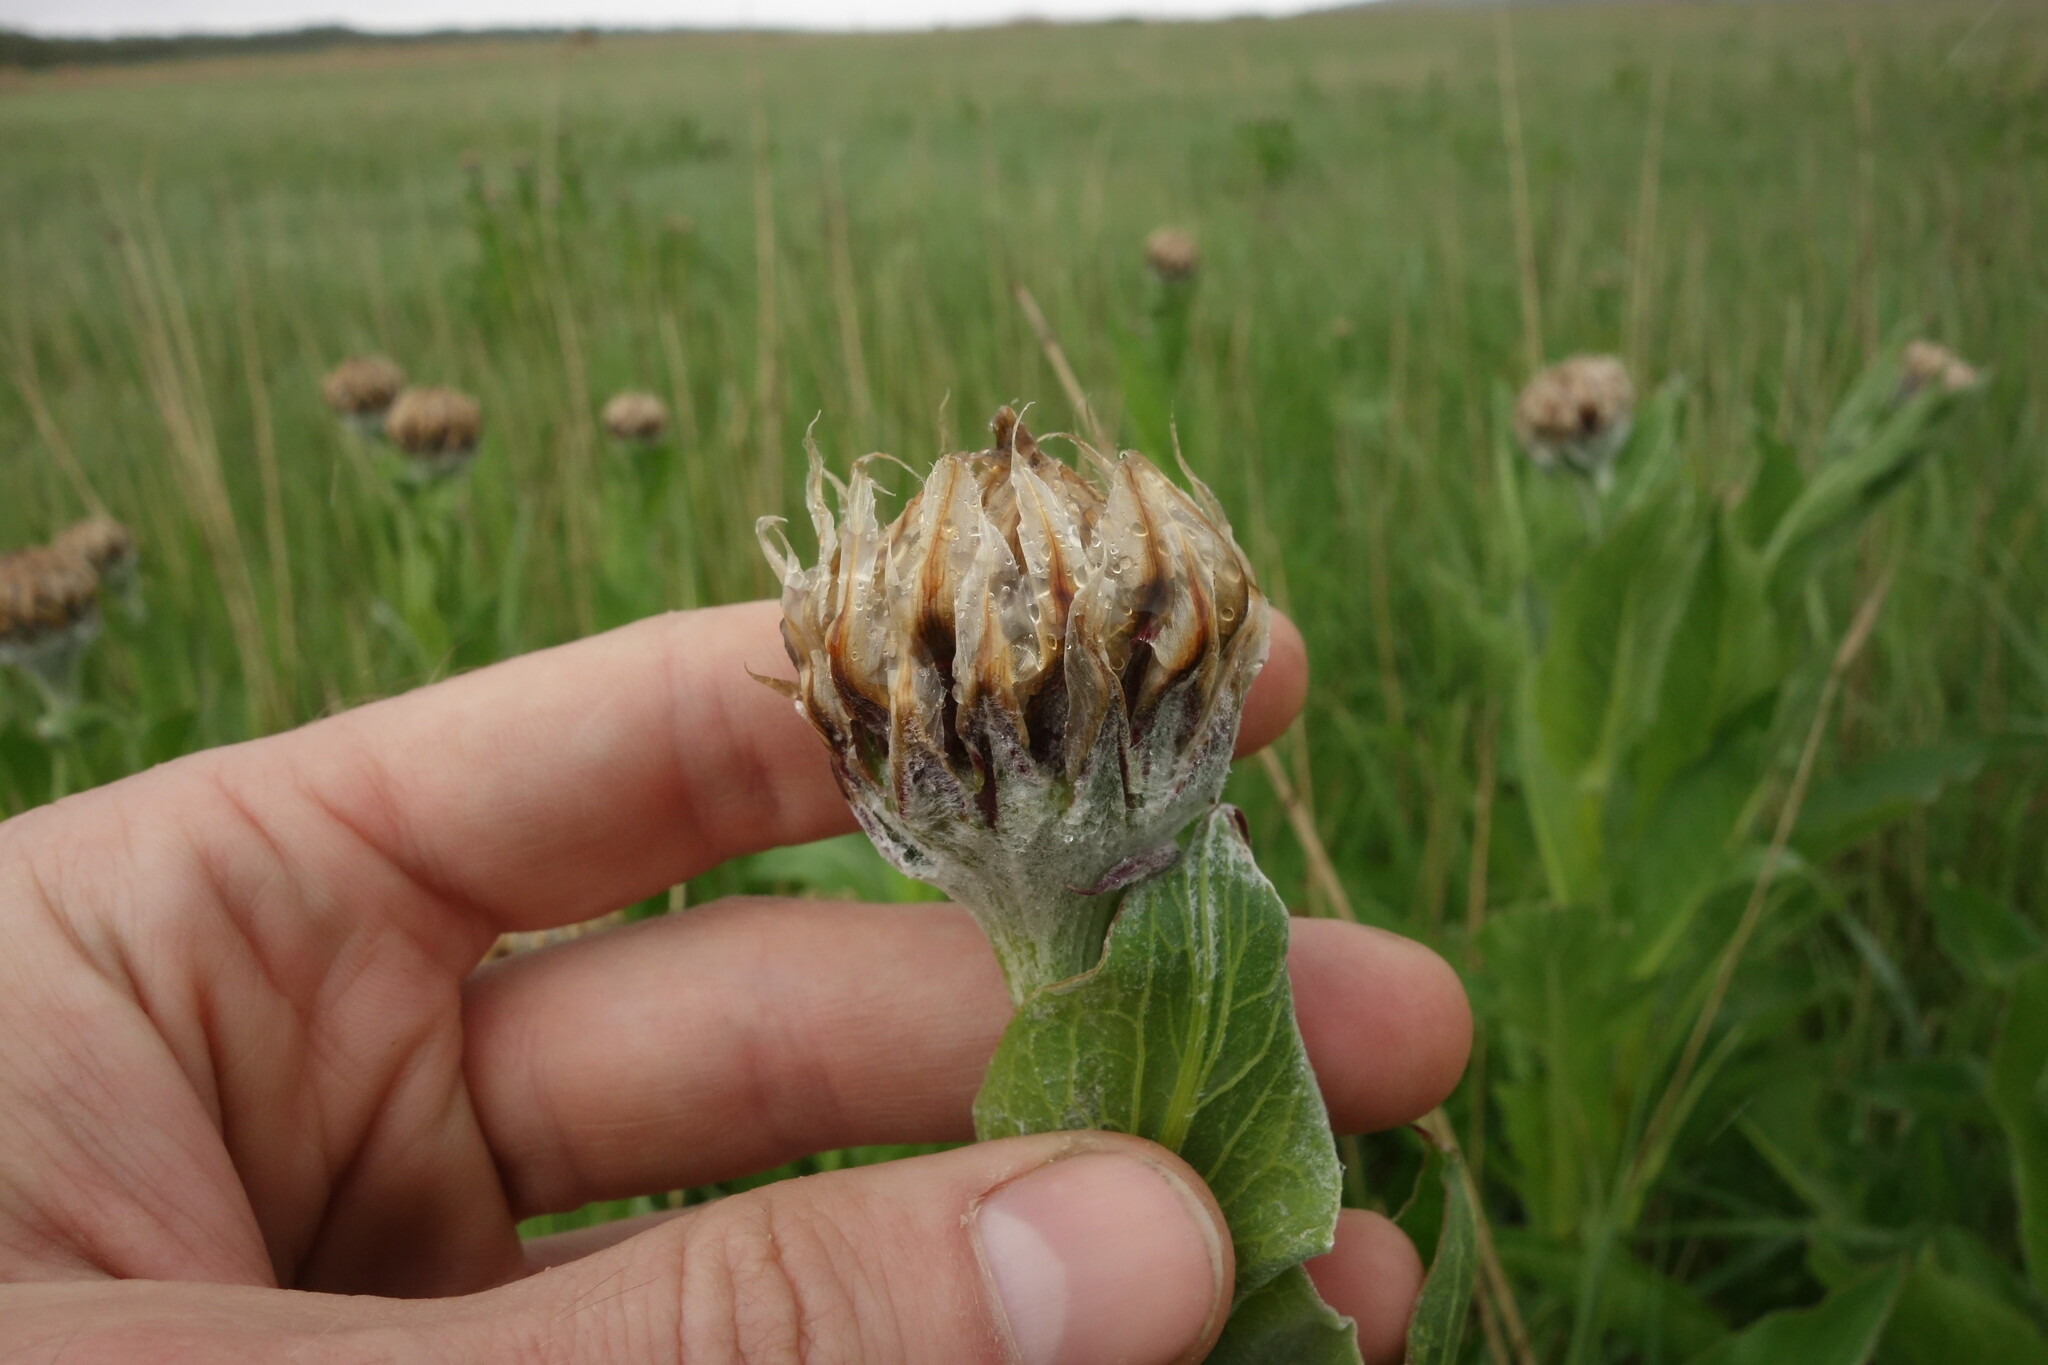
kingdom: Plantae
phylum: Tracheophyta
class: Magnoliopsida
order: Asterales
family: Asteraceae
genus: Leuzea
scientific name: Leuzea carthamoides
